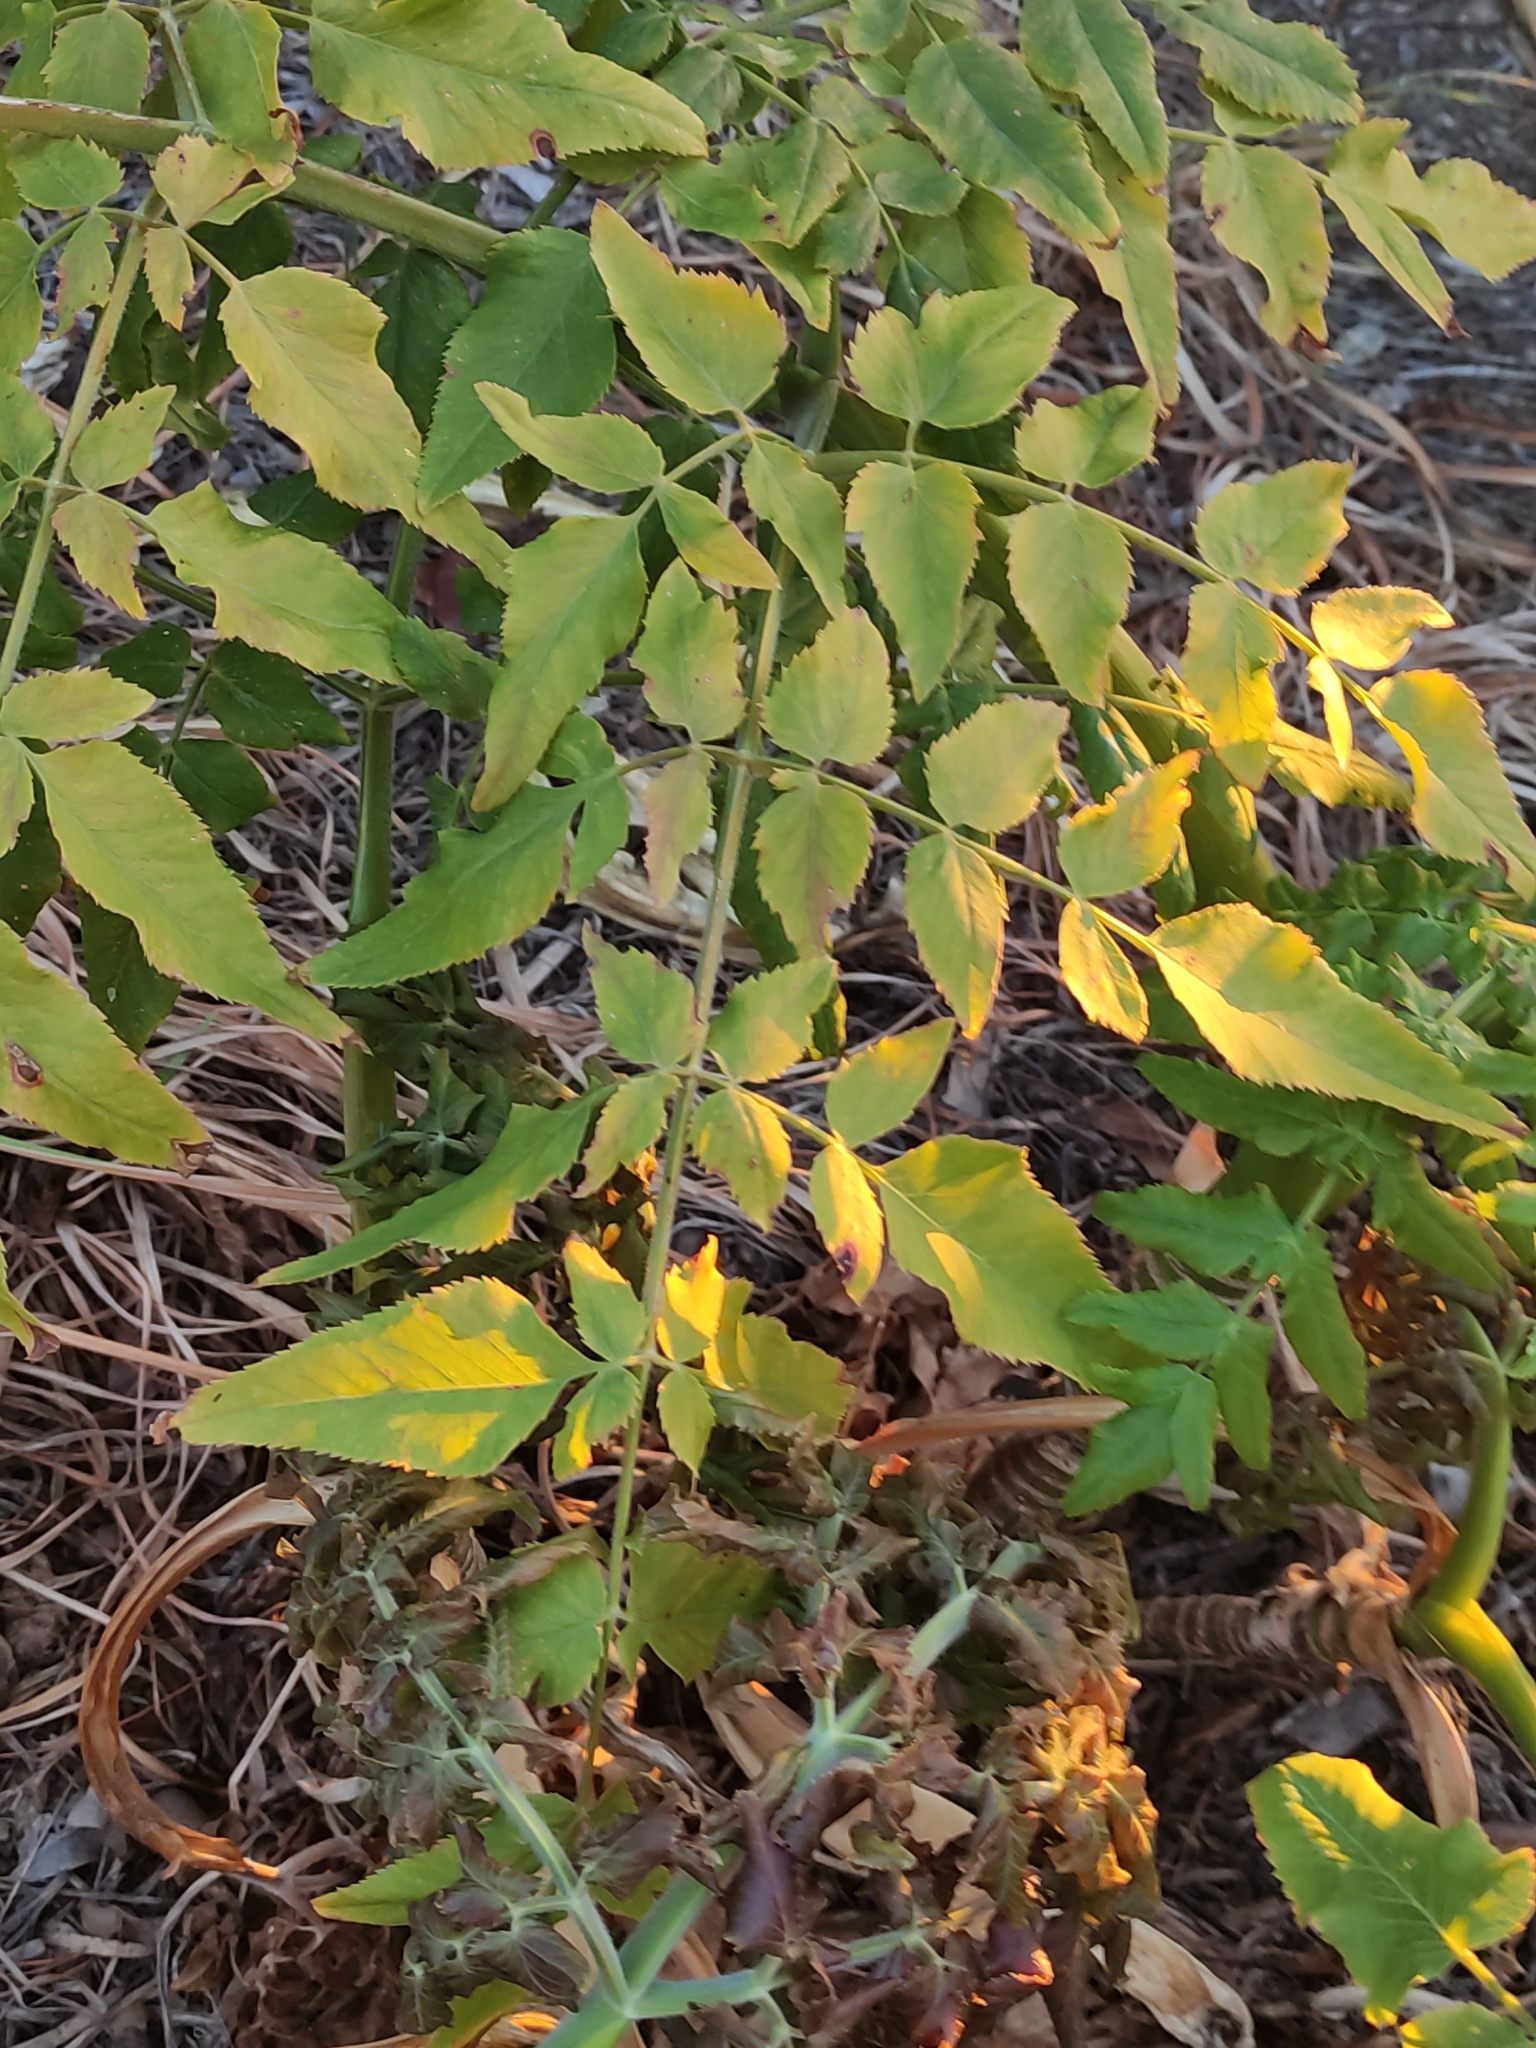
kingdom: Plantae
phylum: Tracheophyta
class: Magnoliopsida
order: Apiales
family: Apiaceae
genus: Daucus
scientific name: Daucus decipiens
